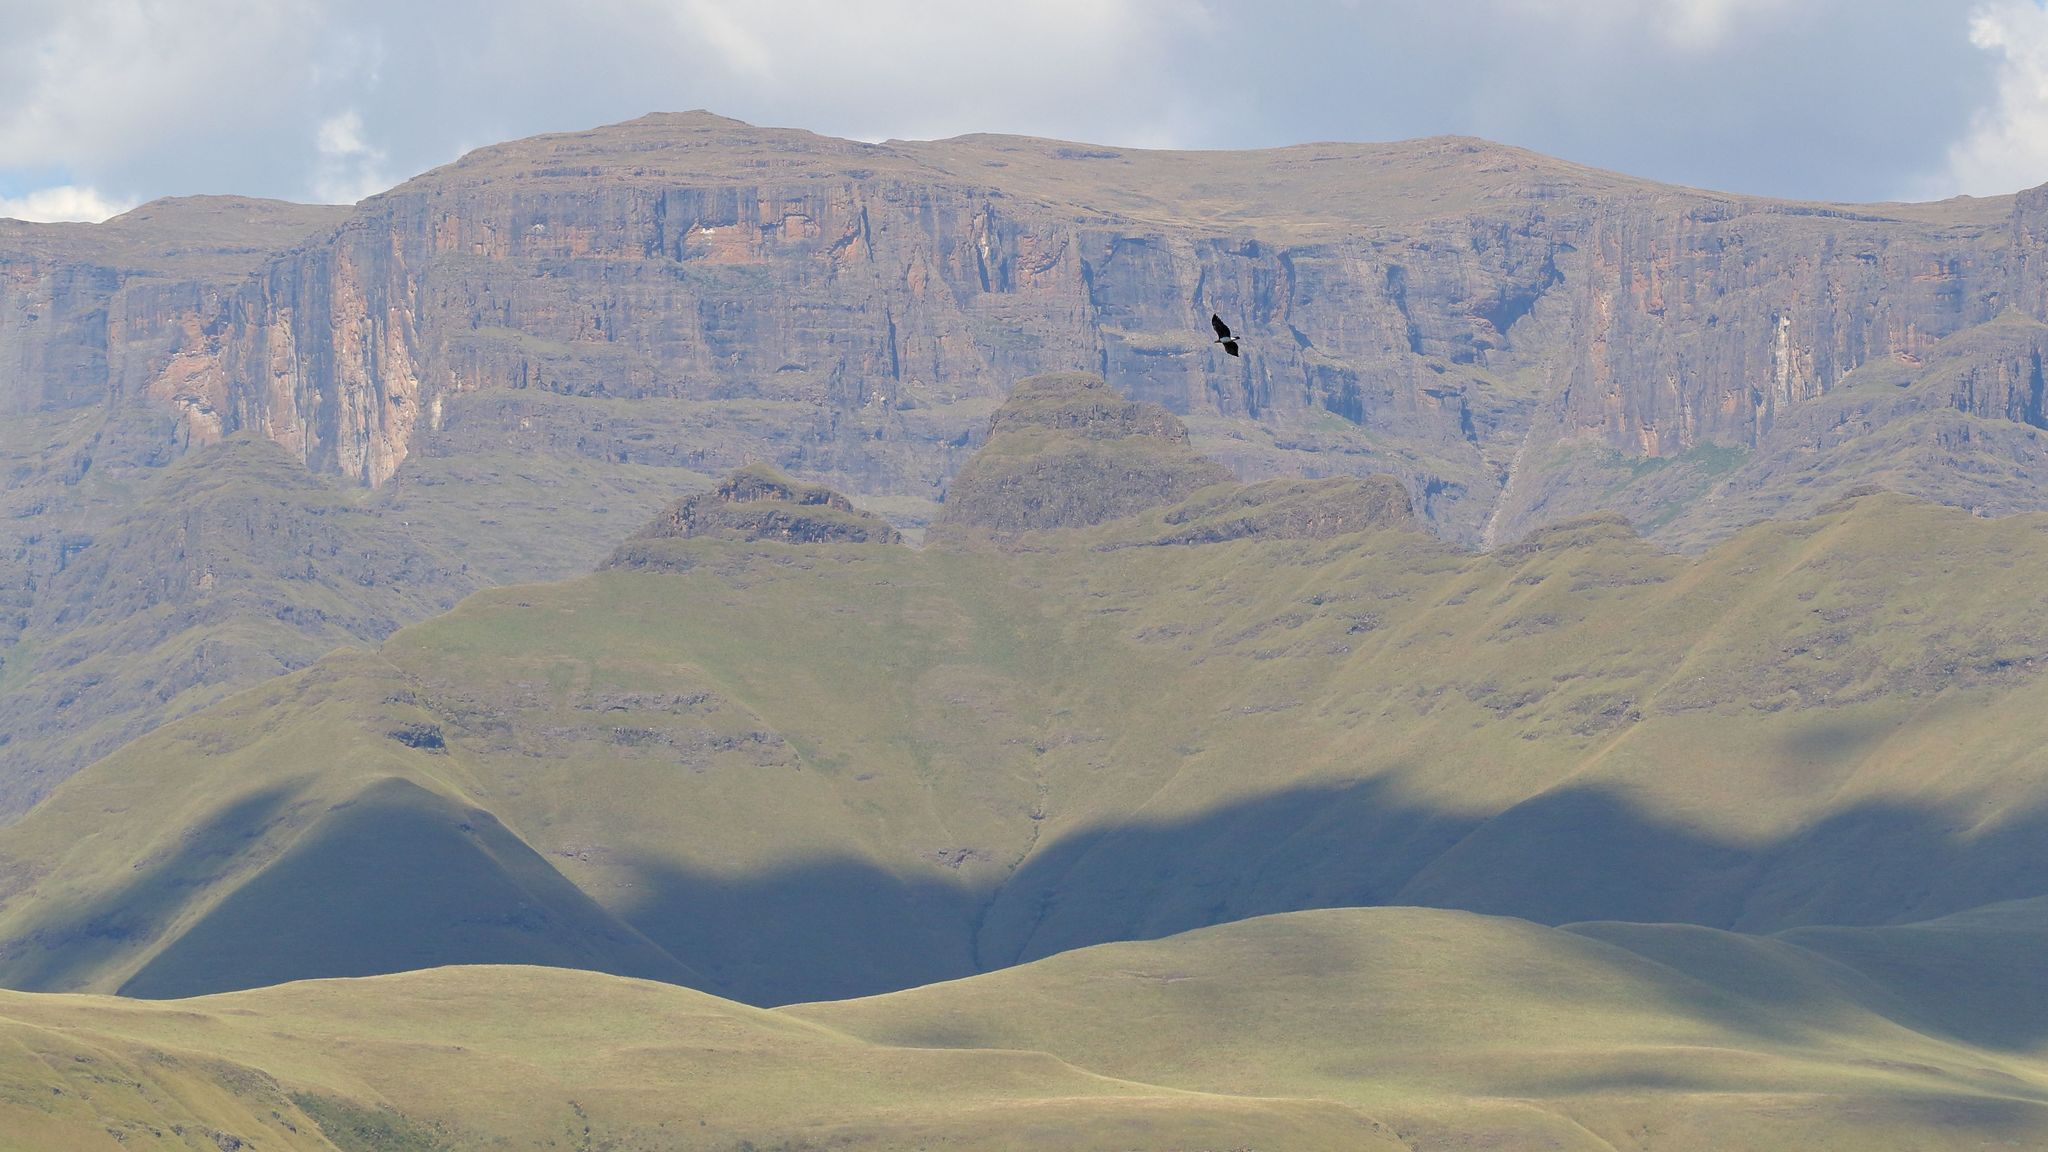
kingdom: Animalia
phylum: Chordata
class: Aves
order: Accipitriformes
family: Accipitridae
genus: Polemaetus
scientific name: Polemaetus bellicosus
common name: Martial eagle
